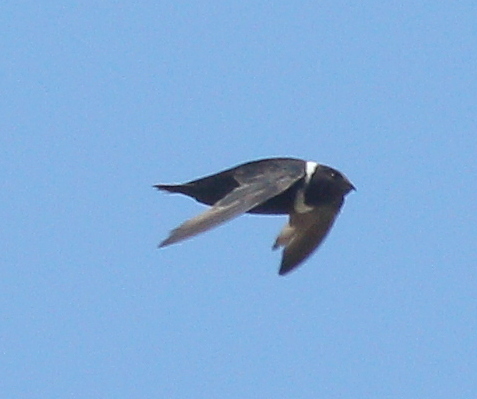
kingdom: Animalia
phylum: Chordata
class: Aves
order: Apodiformes
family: Apodidae
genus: Streptoprocne
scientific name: Streptoprocne zonaris
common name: White-collared swift
